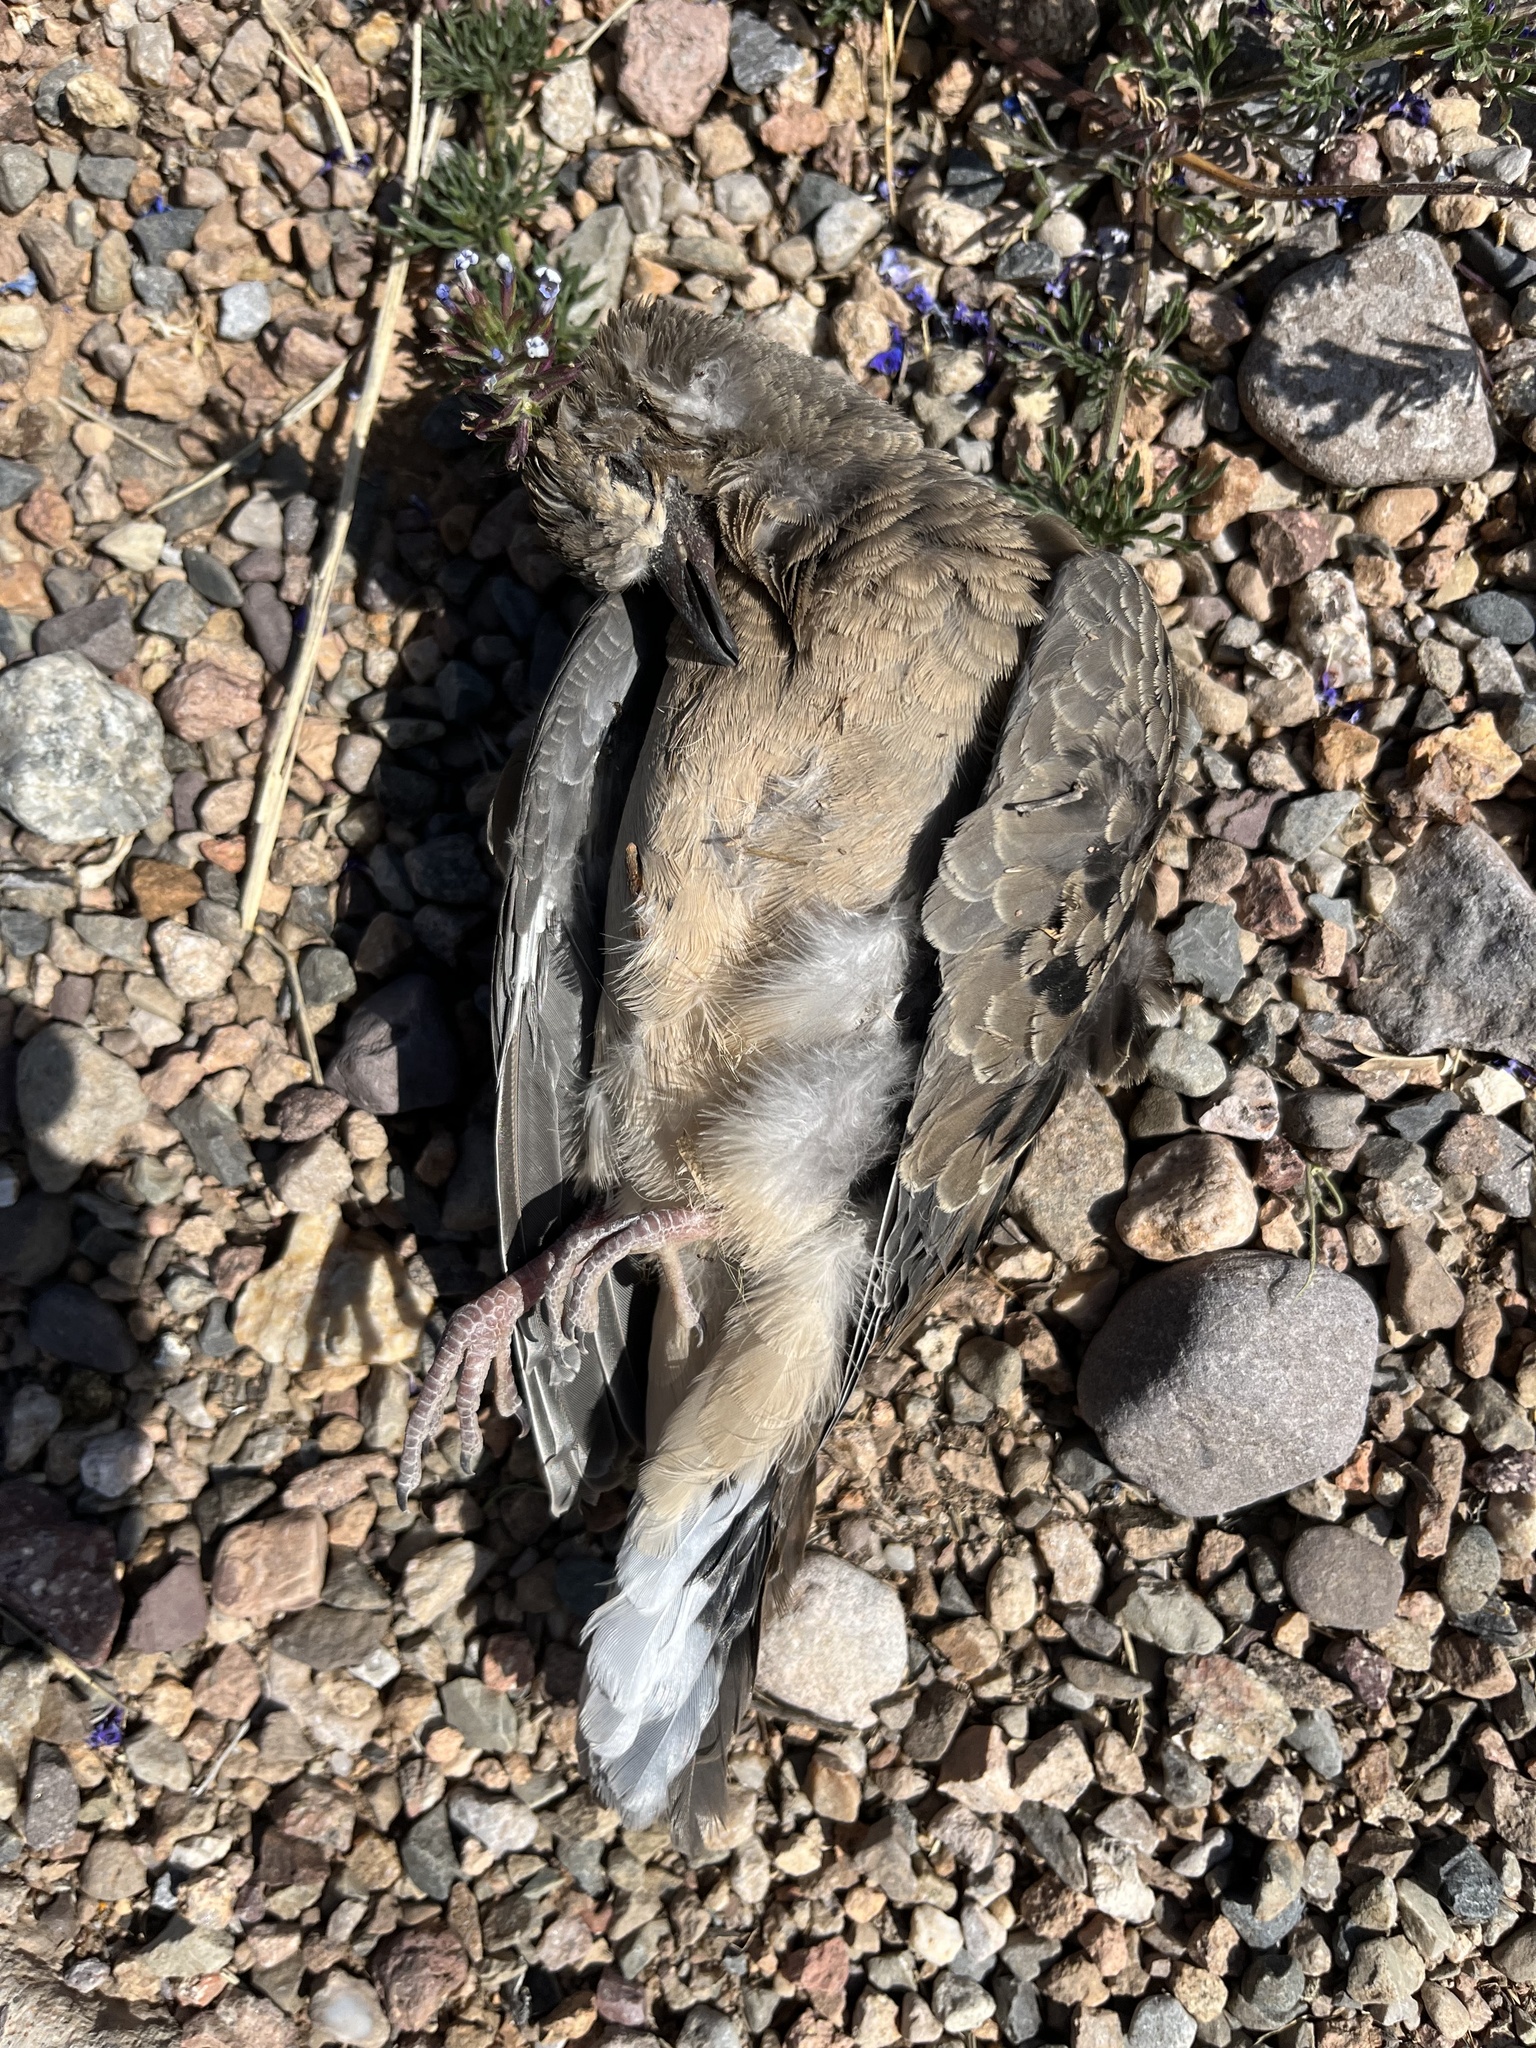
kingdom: Animalia
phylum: Chordata
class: Aves
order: Columbiformes
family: Columbidae
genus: Zenaida
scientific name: Zenaida macroura
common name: Mourning dove
